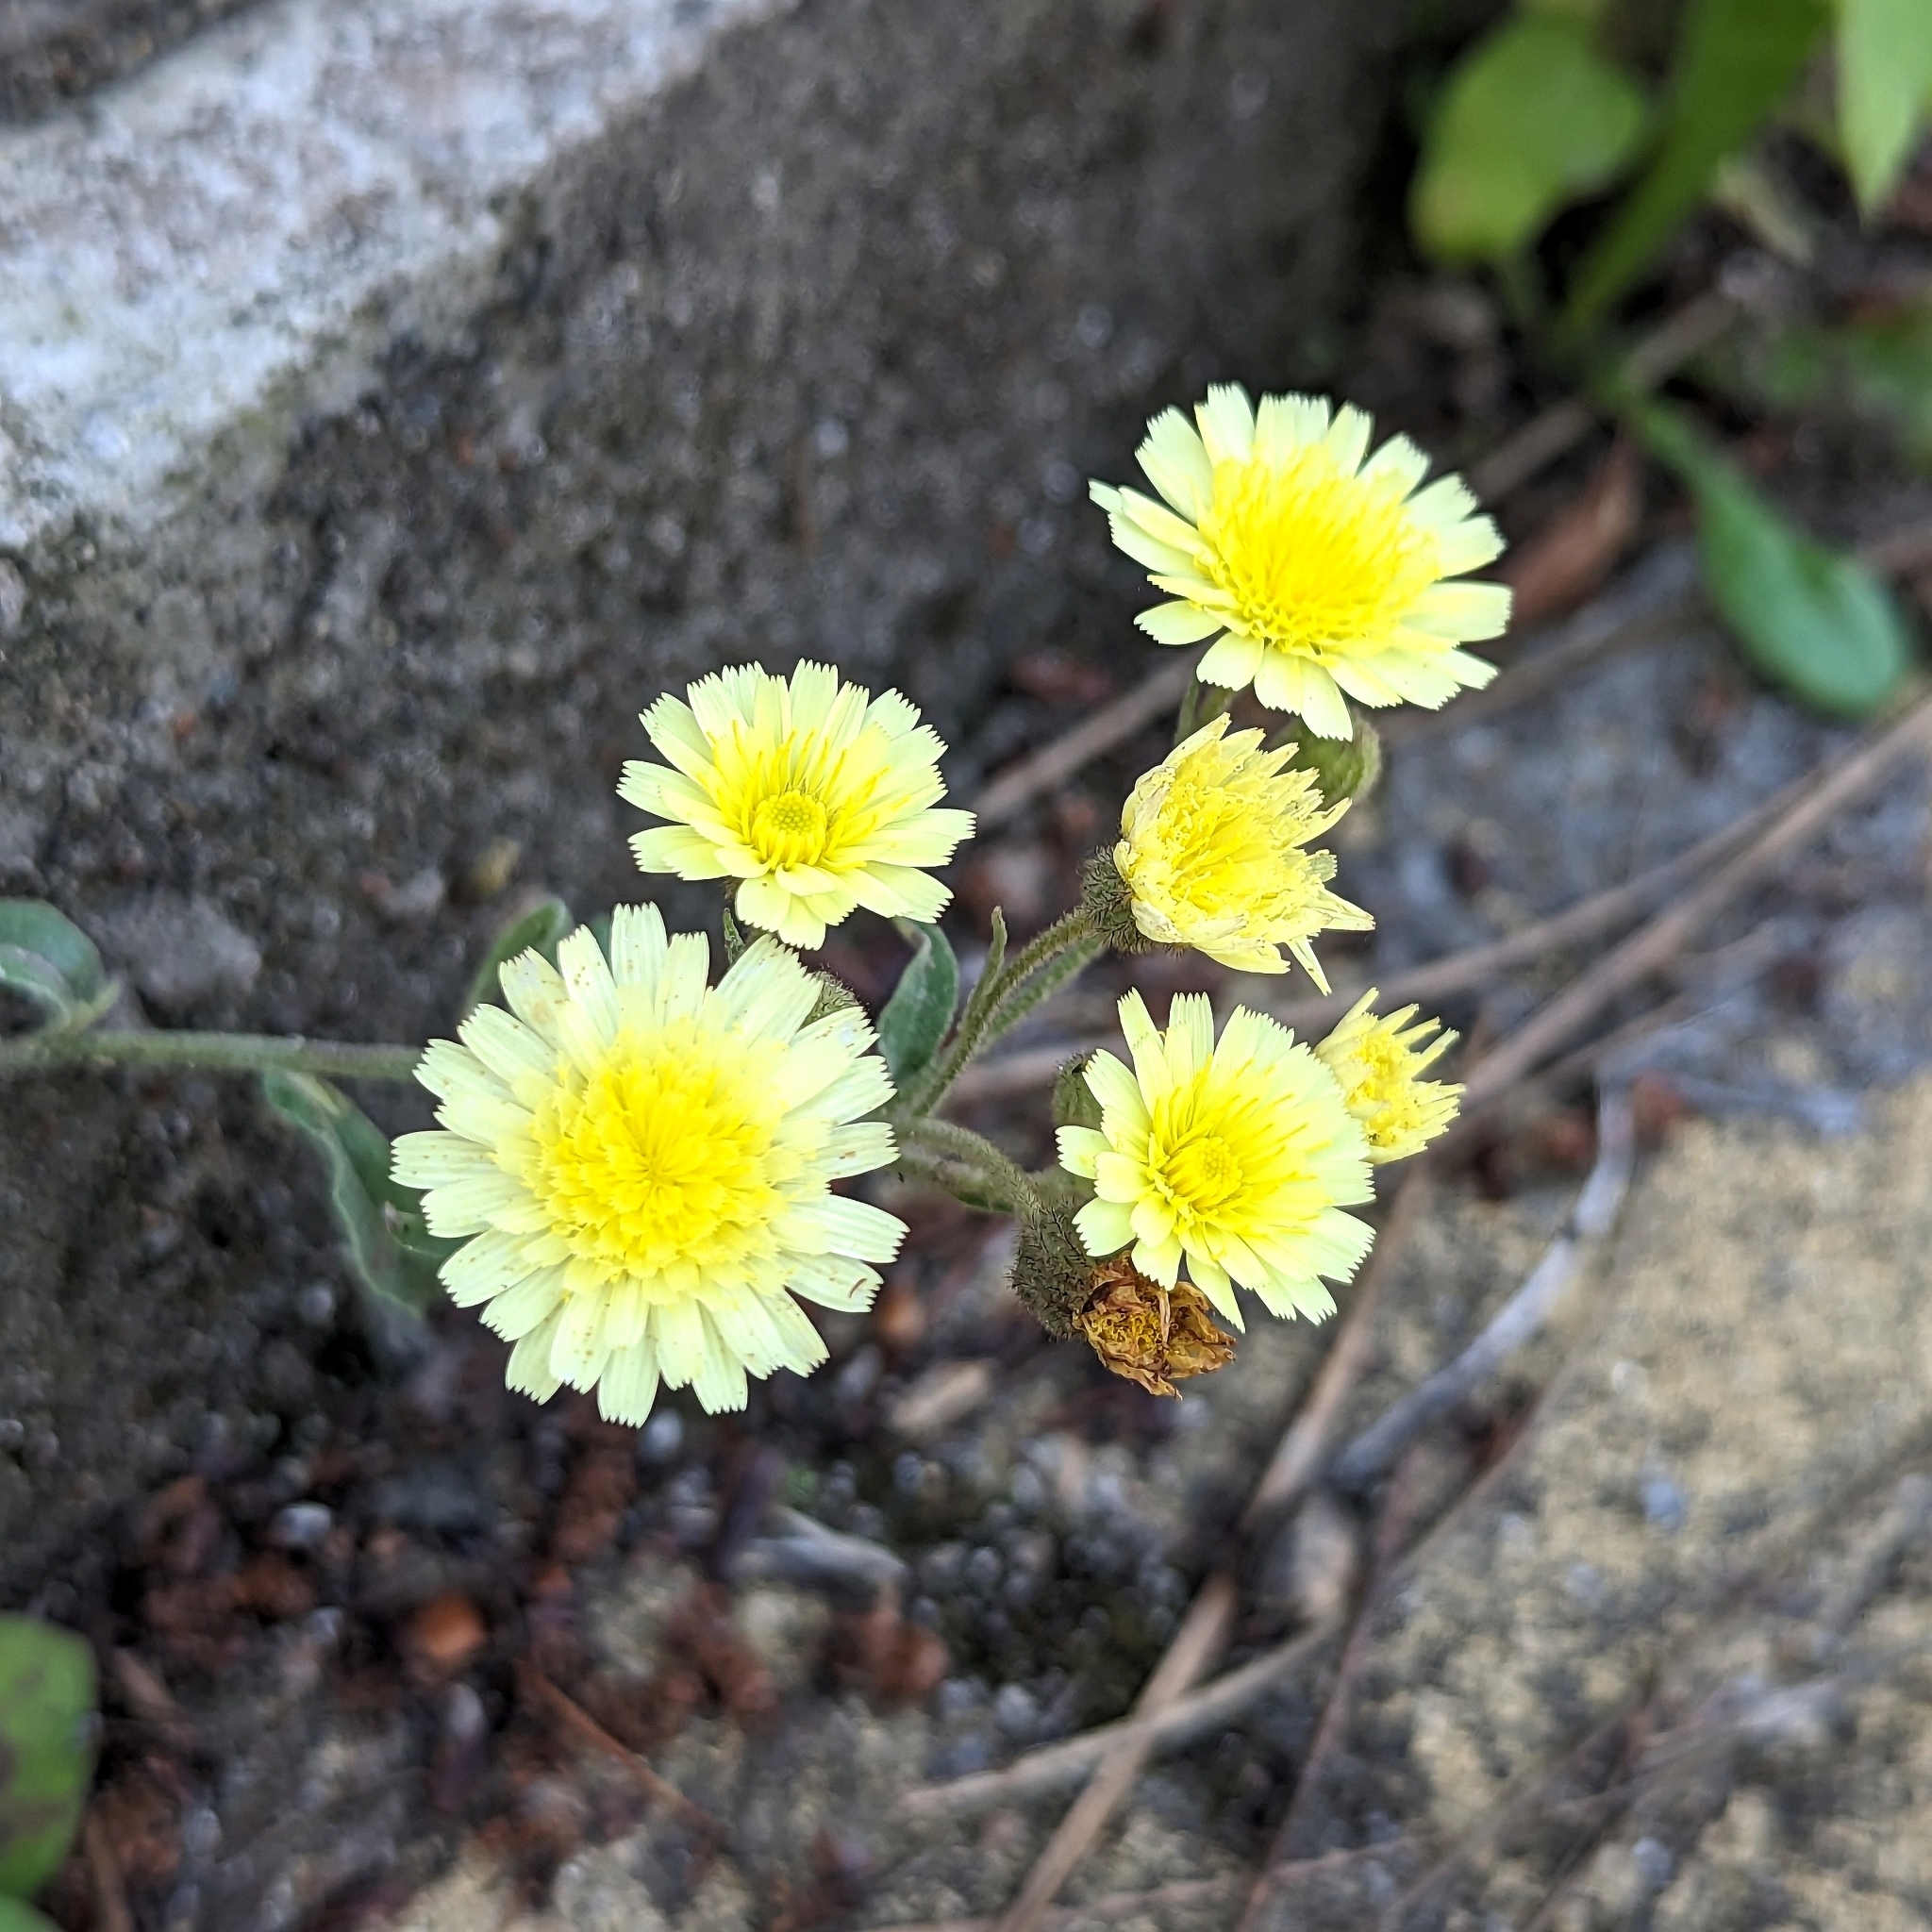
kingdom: Plantae
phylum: Tracheophyta
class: Magnoliopsida
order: Asterales
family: Asteraceae
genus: Andryala
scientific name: Andryala integrifolia
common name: Common andryala
